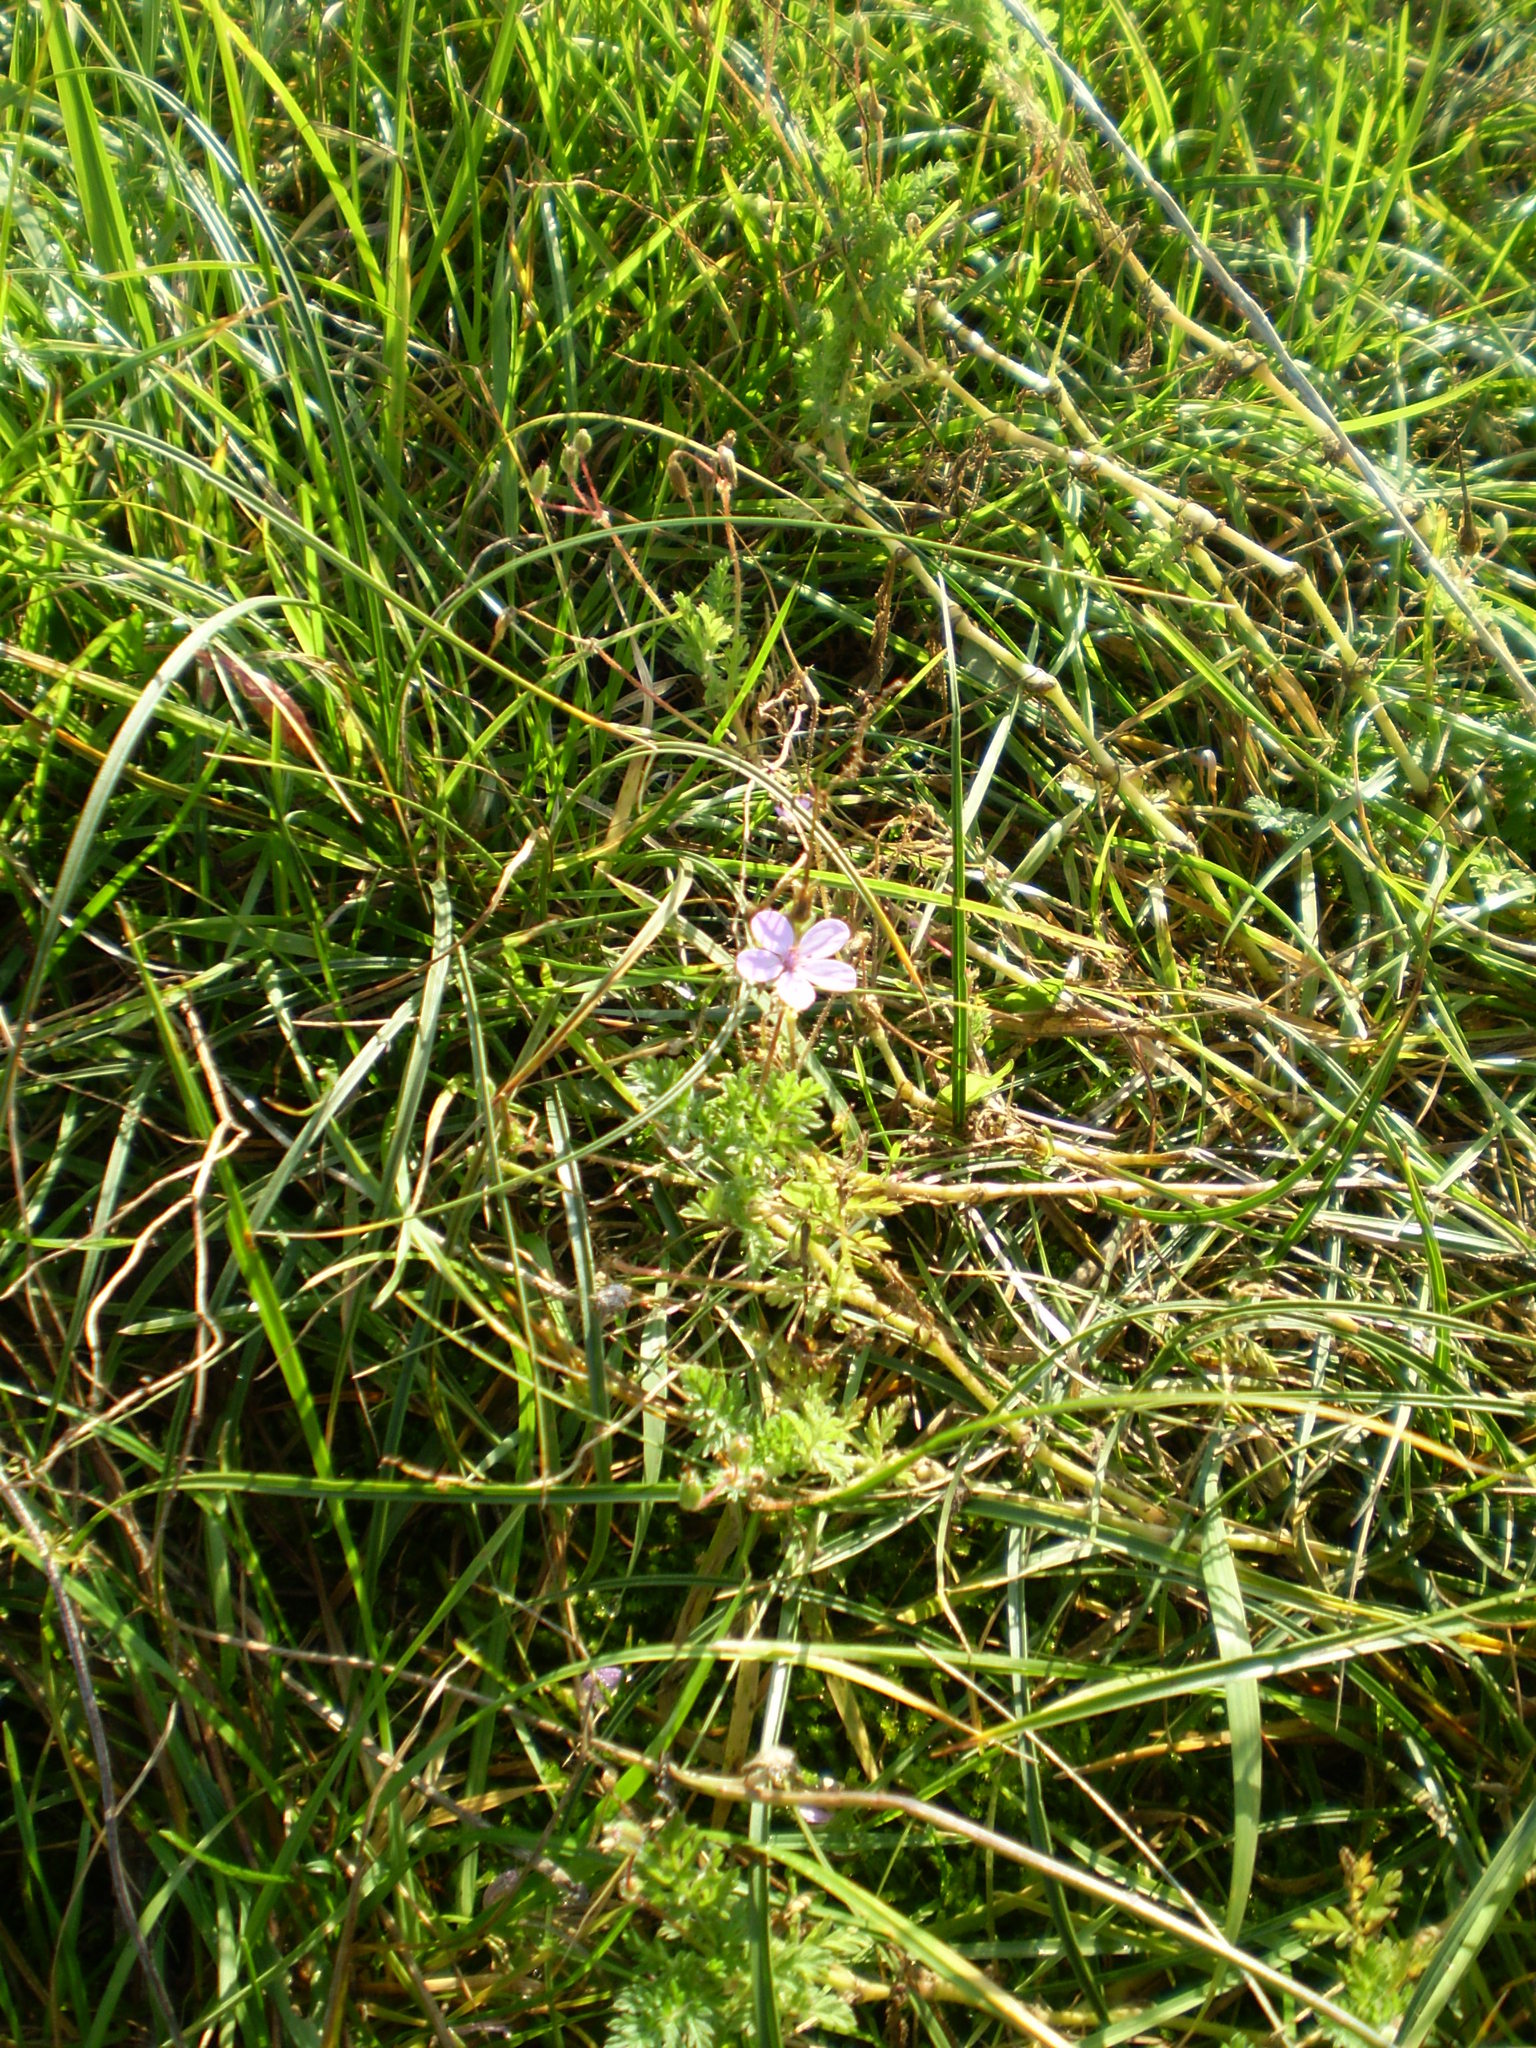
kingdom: Plantae
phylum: Tracheophyta
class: Magnoliopsida
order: Geraniales
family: Geraniaceae
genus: Erodium
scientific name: Erodium cicutarium
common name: Common stork's-bill
